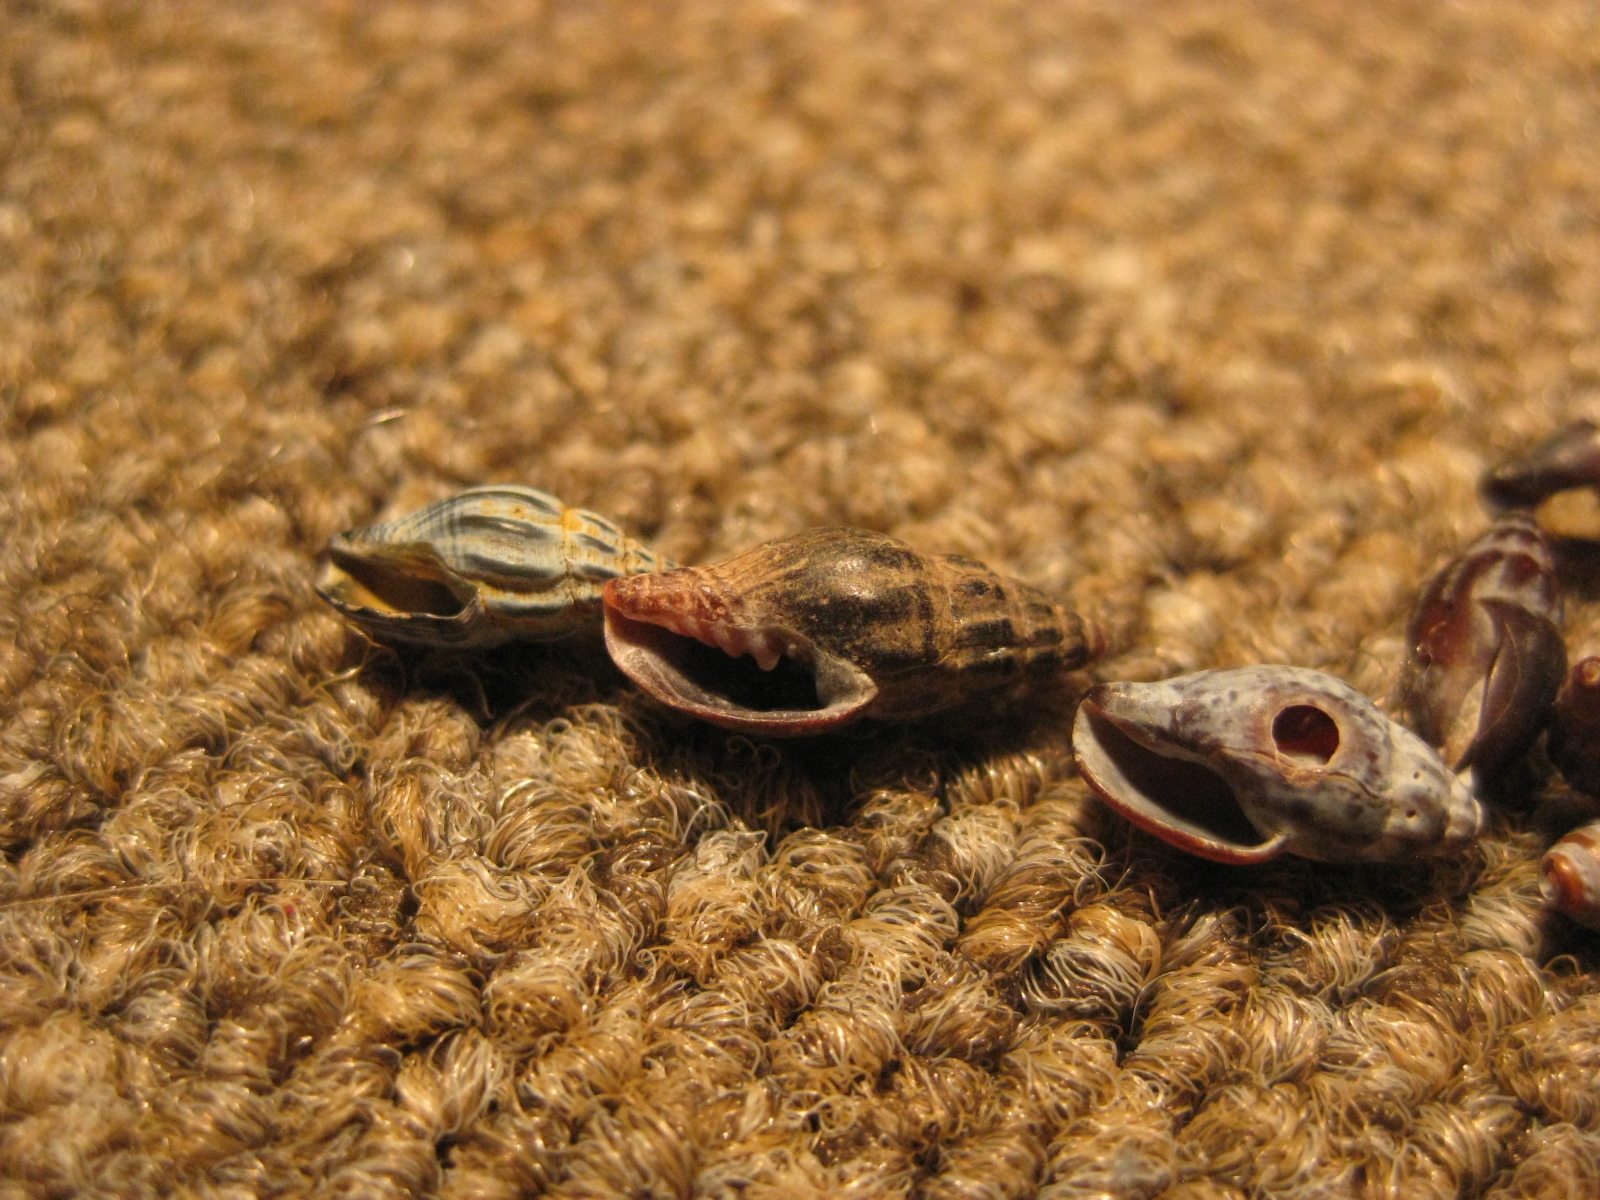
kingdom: Animalia
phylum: Mollusca
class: Gastropoda
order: Neogastropoda
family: Costellariidae
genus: Austromitra
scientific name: Austromitra rubiginosa
